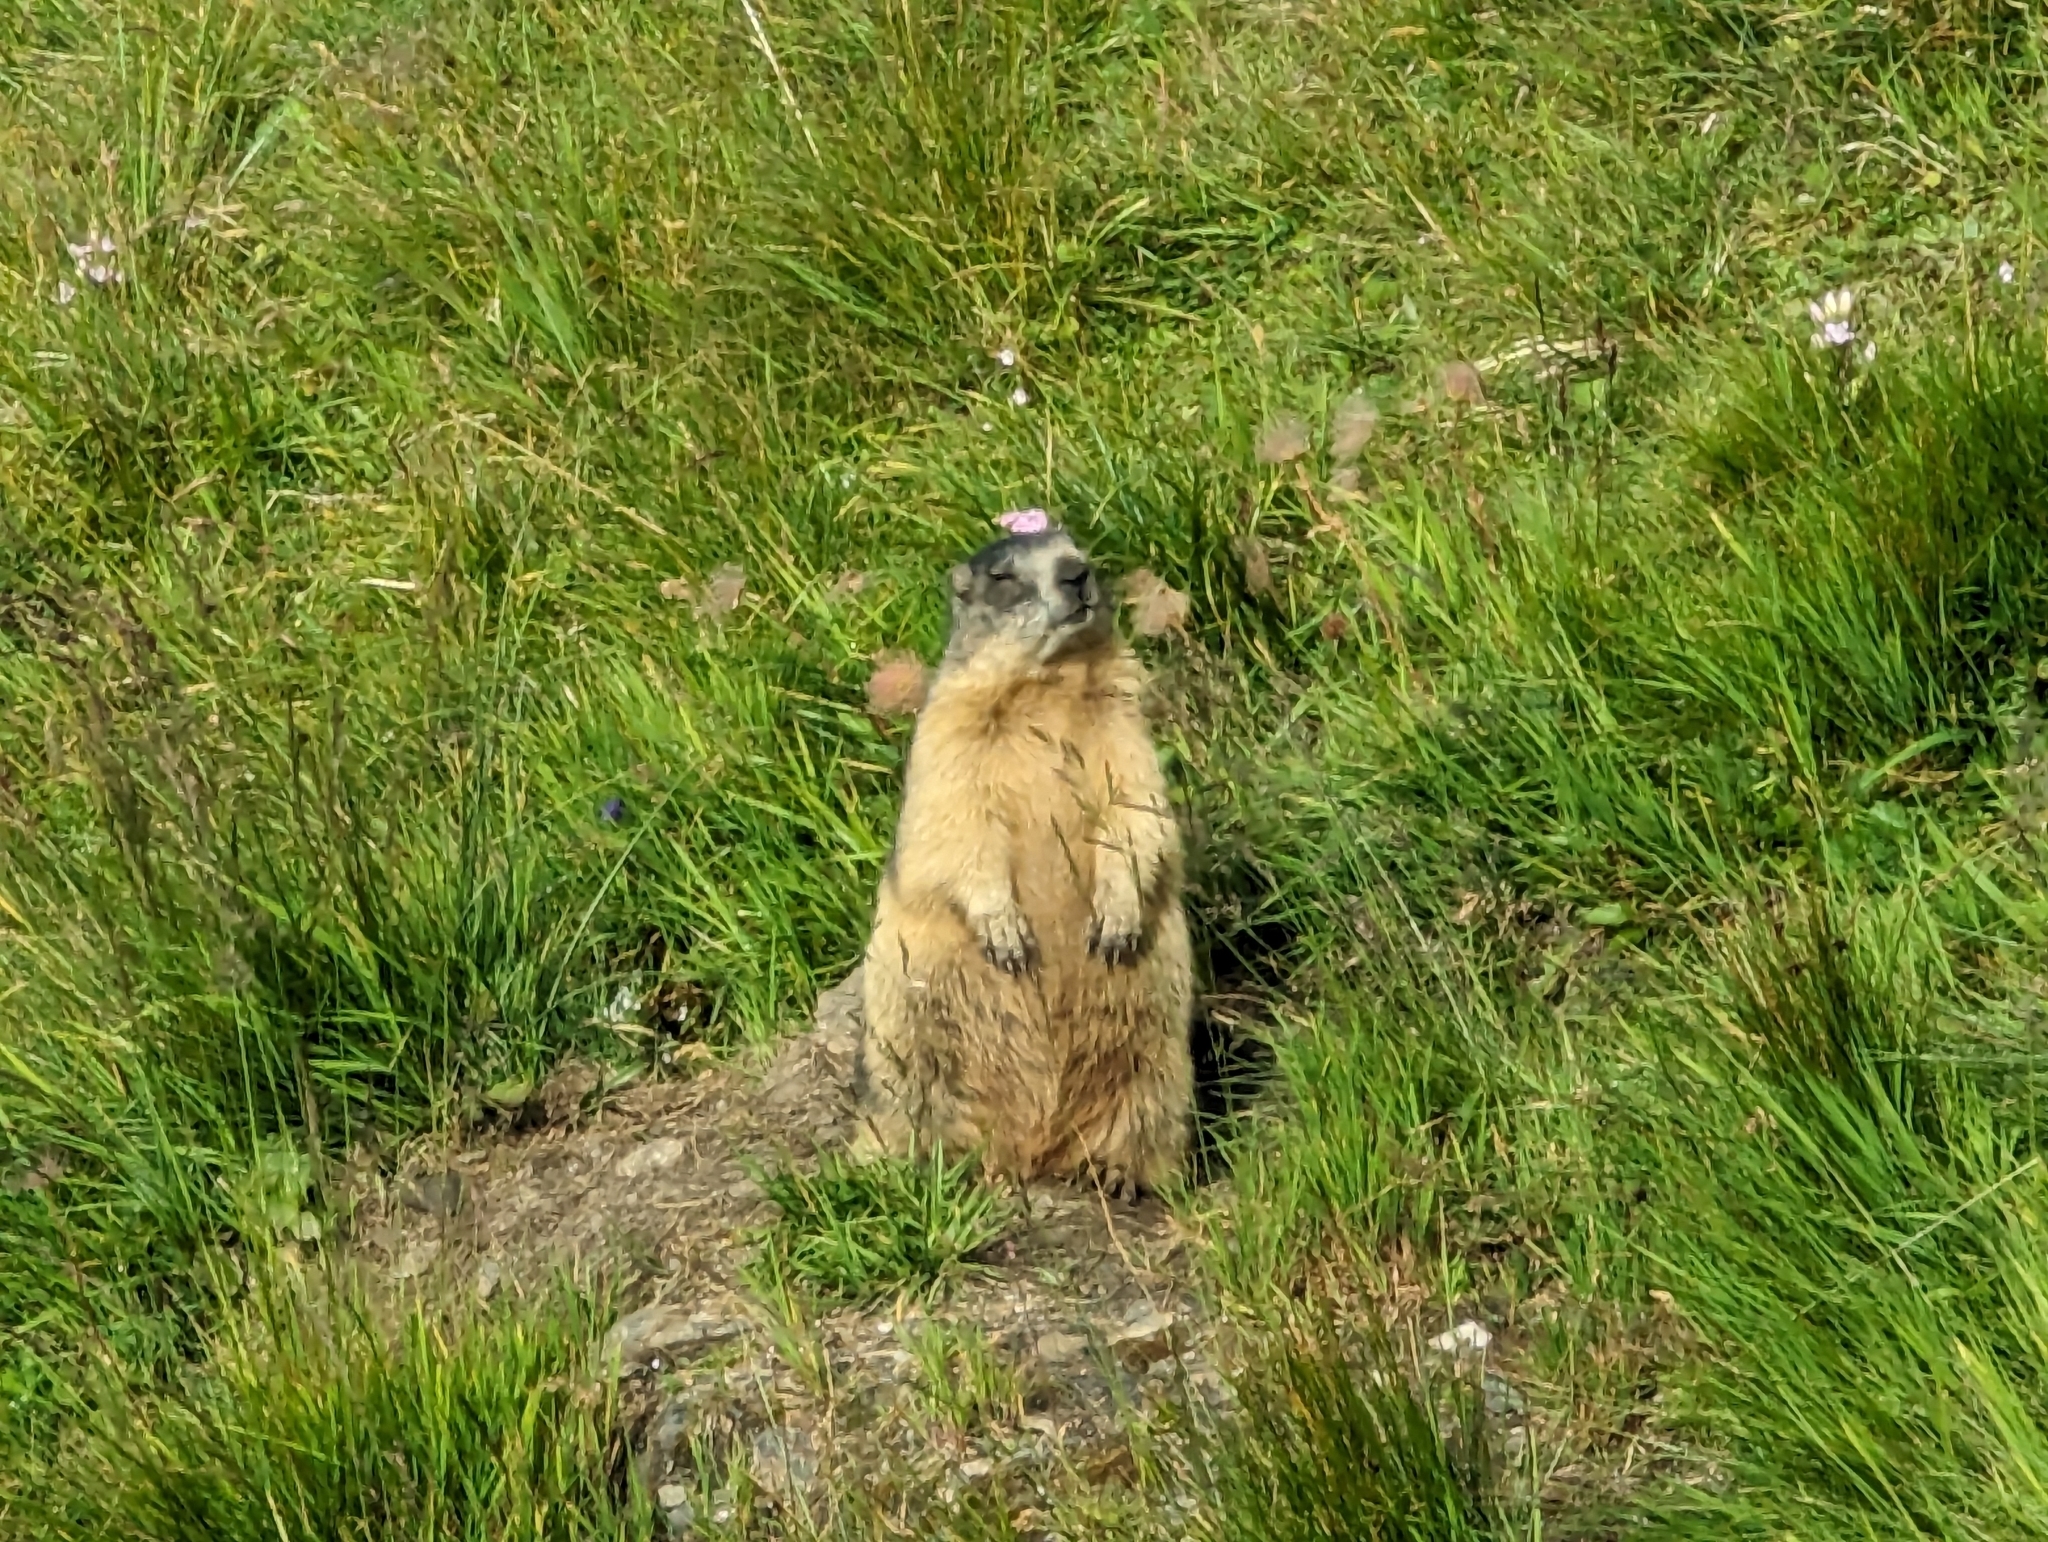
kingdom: Animalia
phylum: Chordata
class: Mammalia
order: Rodentia
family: Sciuridae
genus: Marmota
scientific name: Marmota marmota
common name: Alpine marmot
